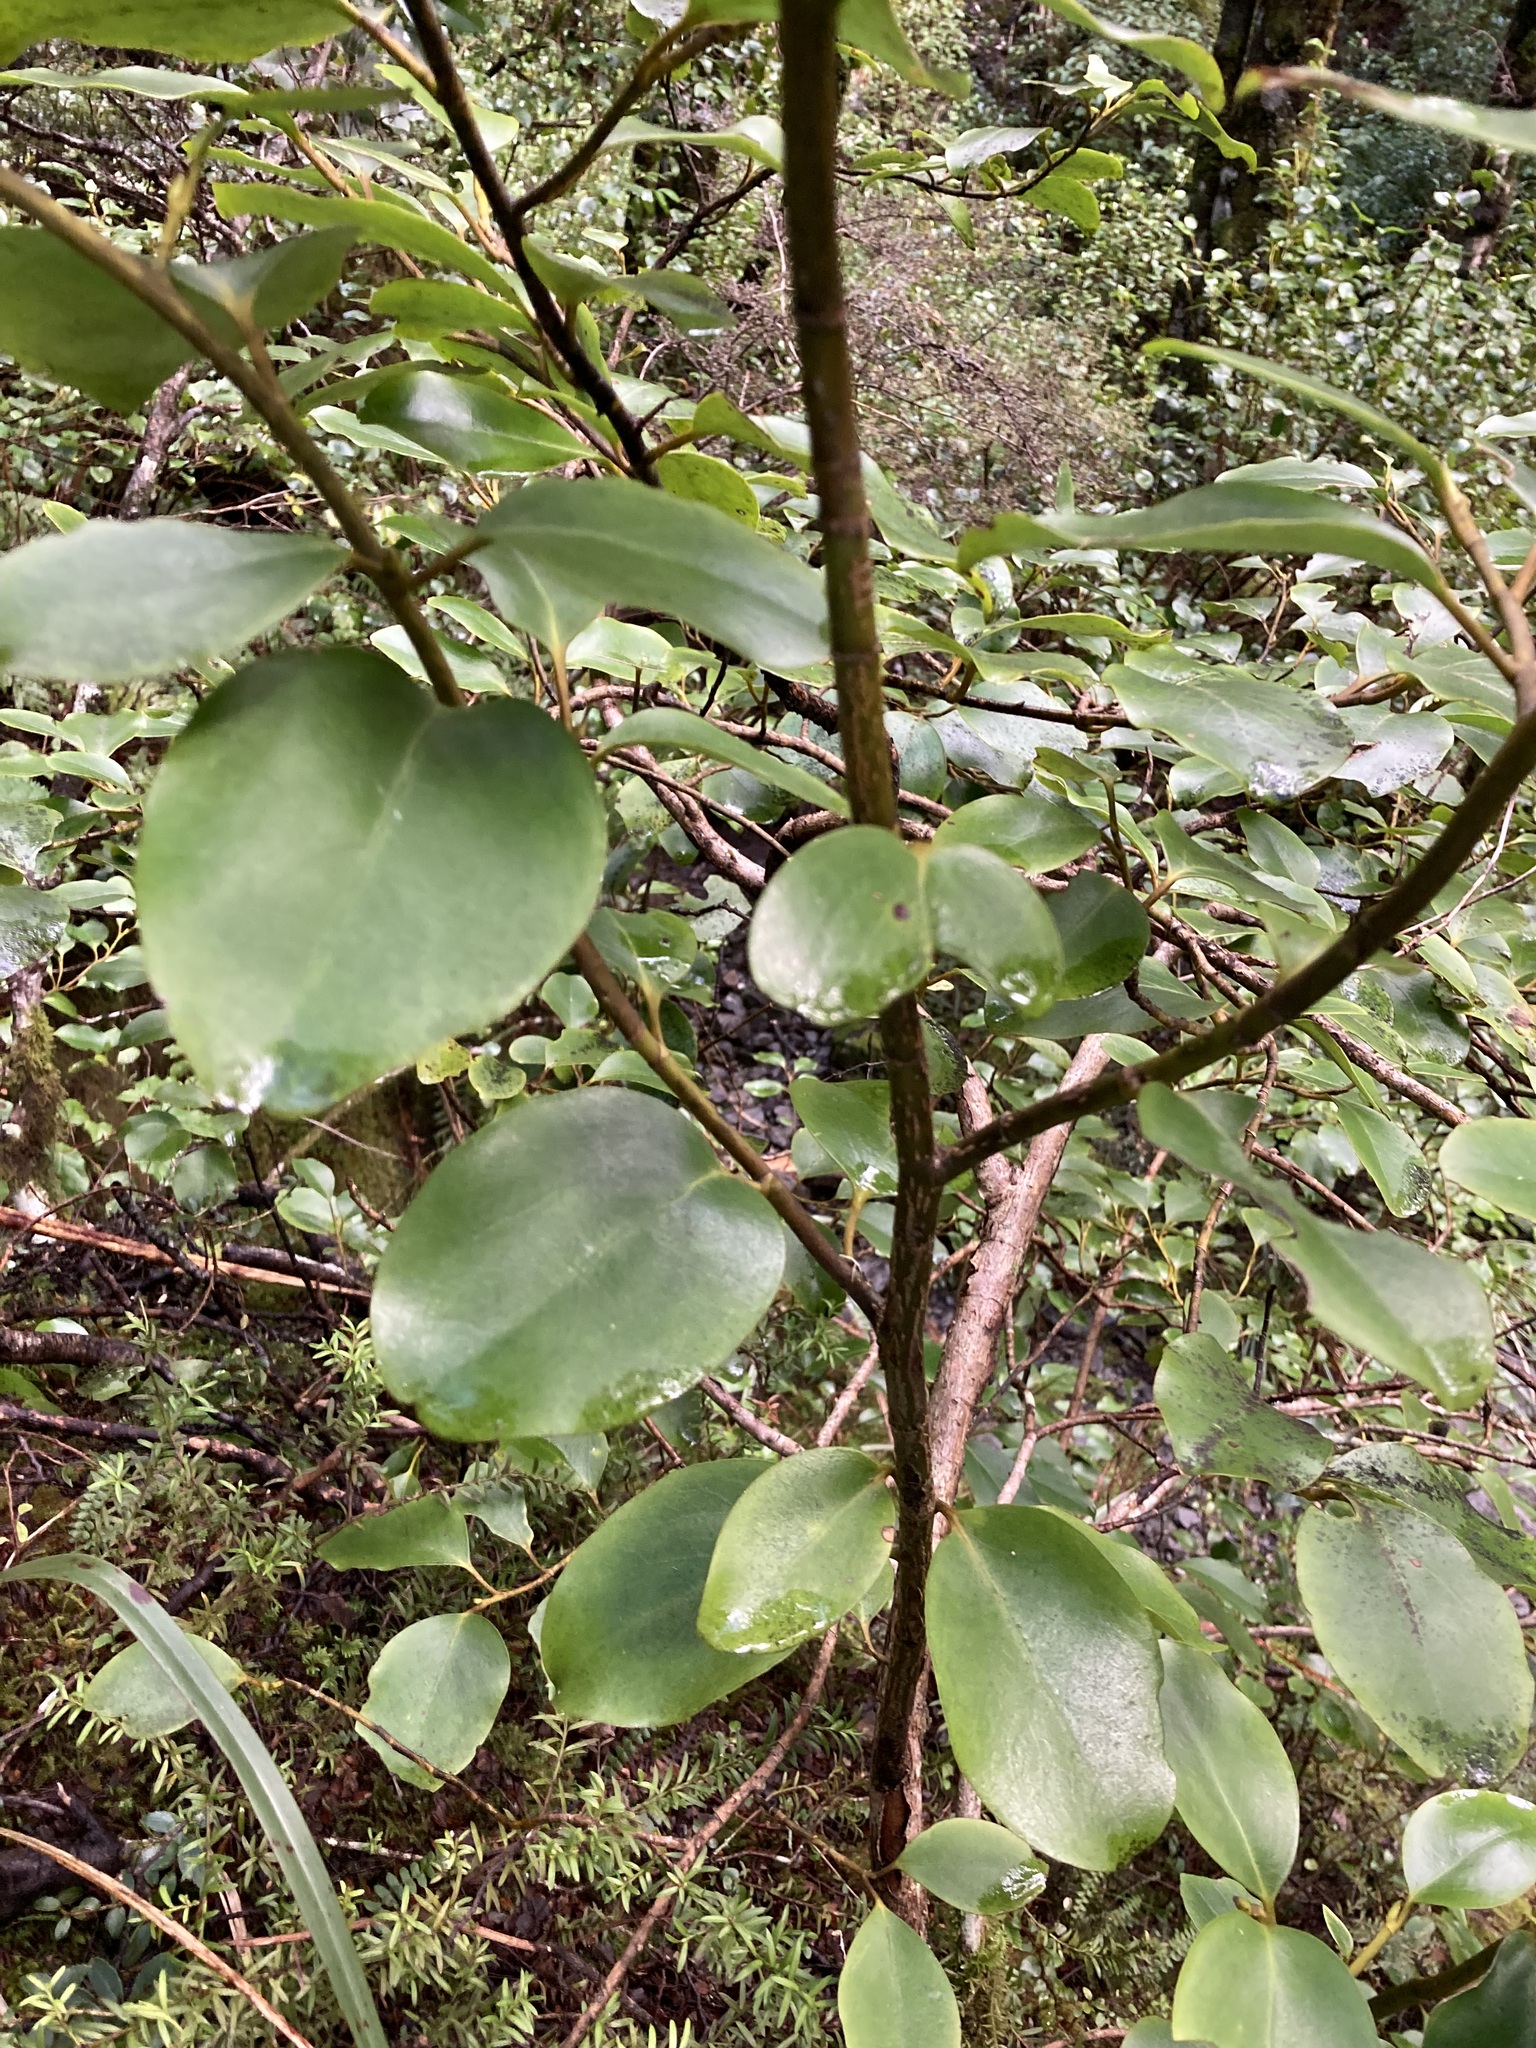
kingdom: Plantae
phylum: Tracheophyta
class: Magnoliopsida
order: Apiales
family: Griseliniaceae
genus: Griselinia
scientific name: Griselinia littoralis
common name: New zealand broadleaf
